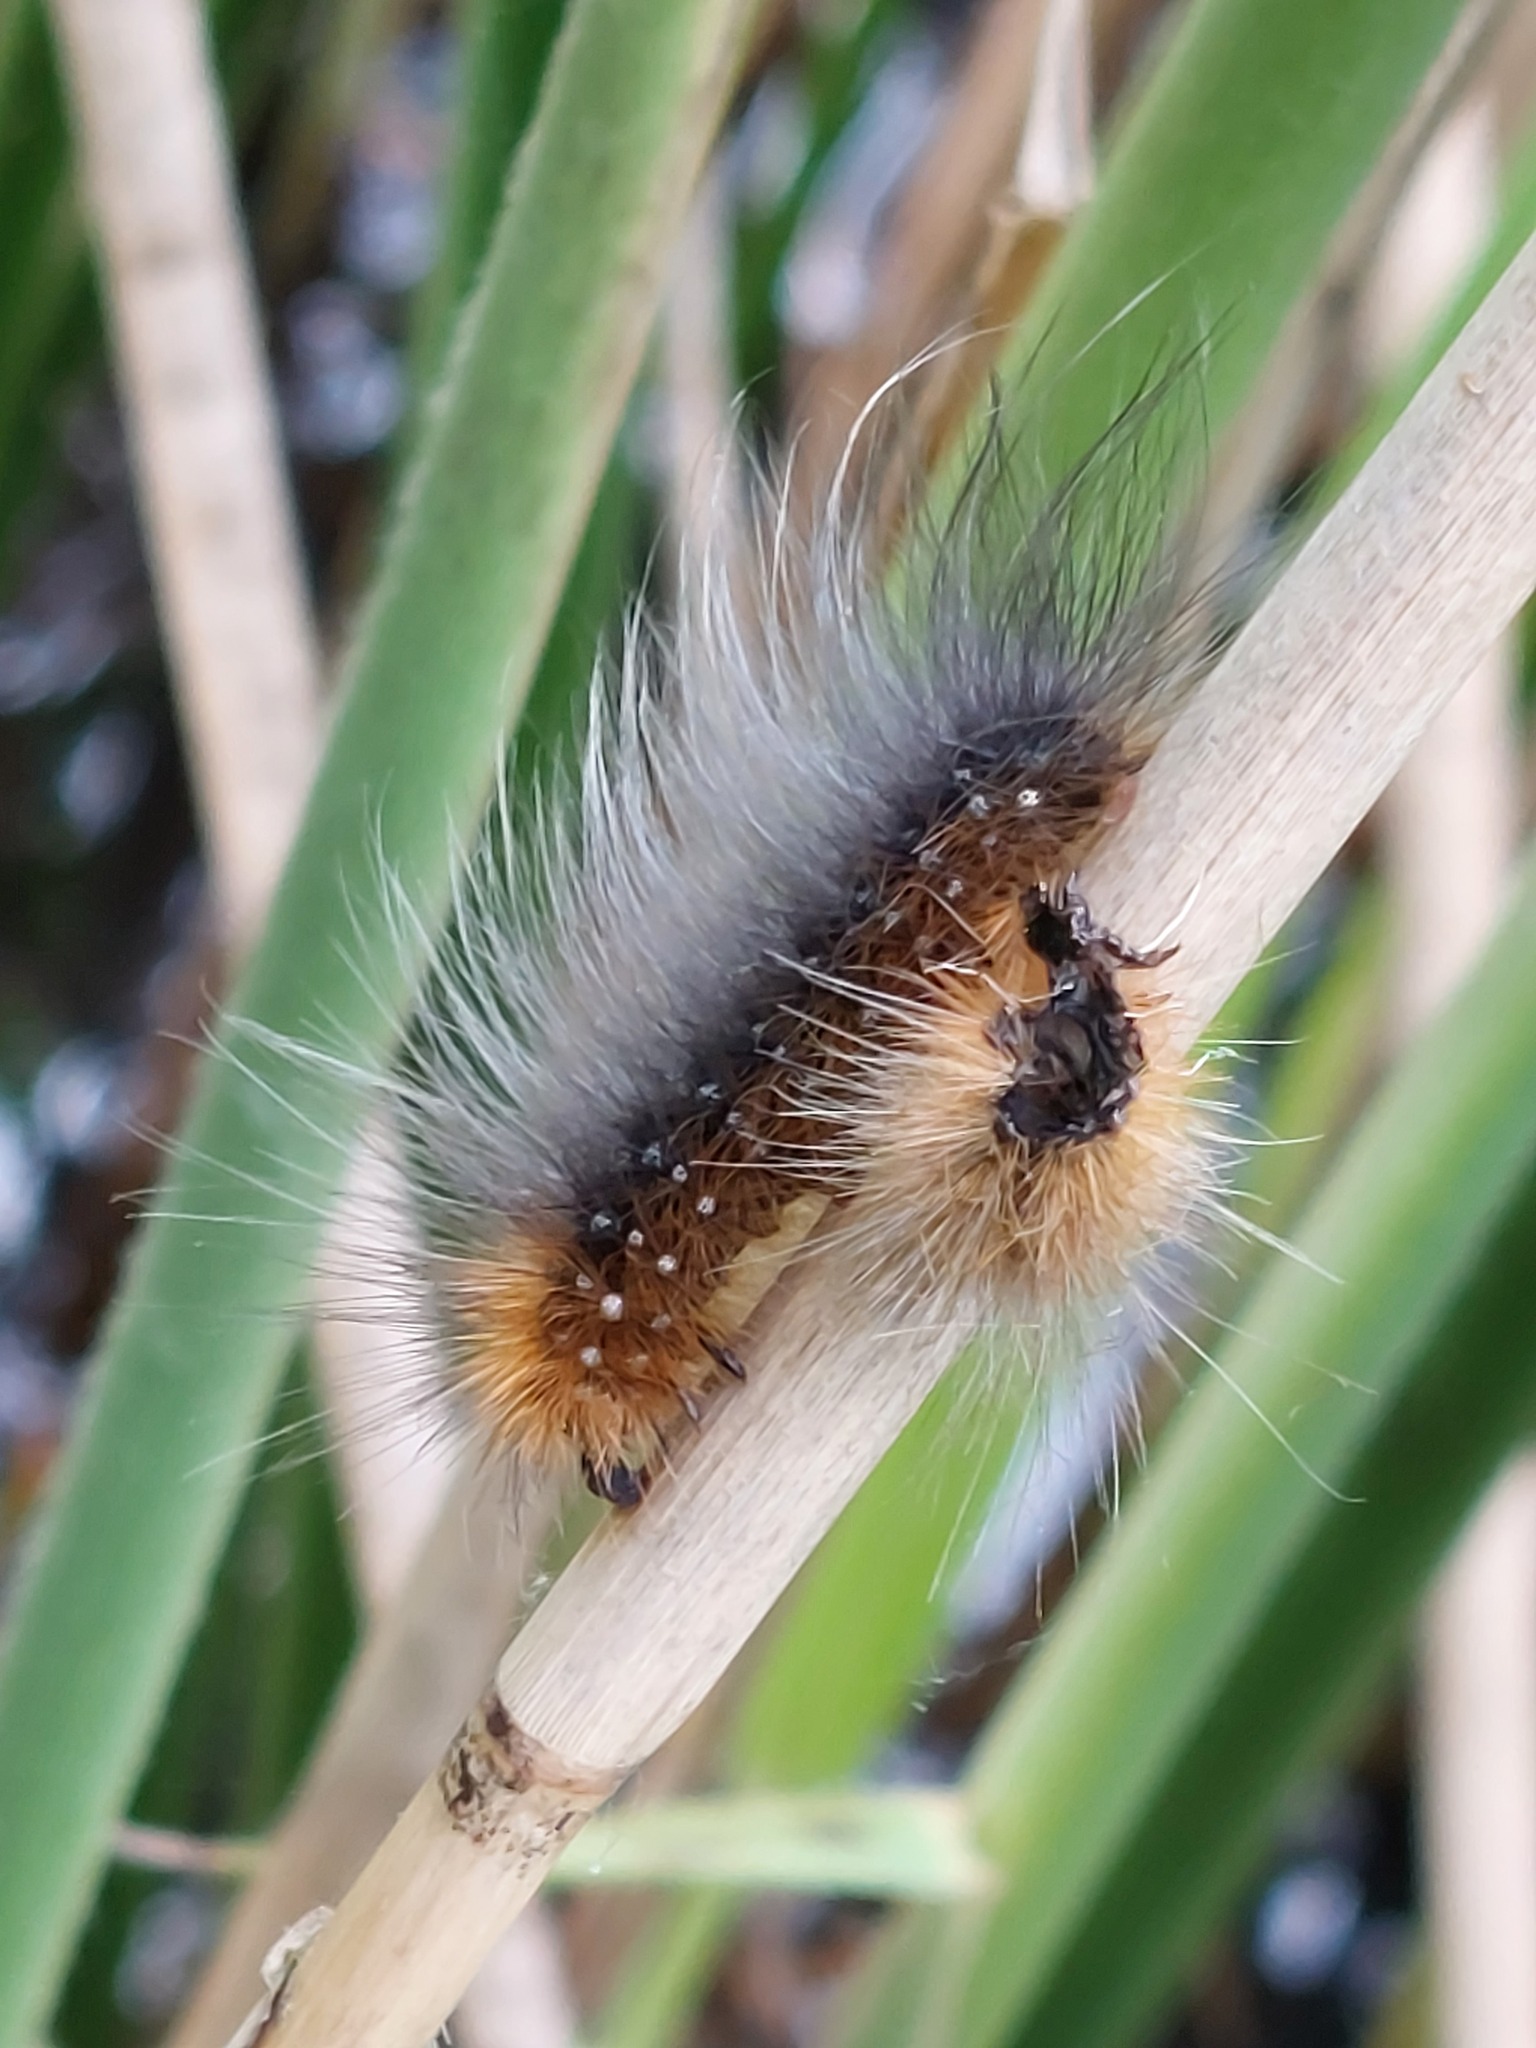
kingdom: Animalia
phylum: Arthropoda
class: Insecta
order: Lepidoptera
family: Erebidae
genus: Arctia
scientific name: Arctia caja
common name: Garden tiger
